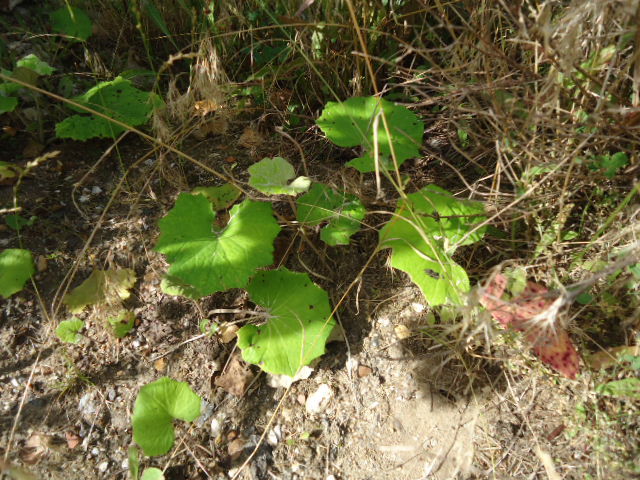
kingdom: Plantae
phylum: Tracheophyta
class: Magnoliopsida
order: Asterales
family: Asteraceae
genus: Tussilago
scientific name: Tussilago farfara
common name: Coltsfoot
